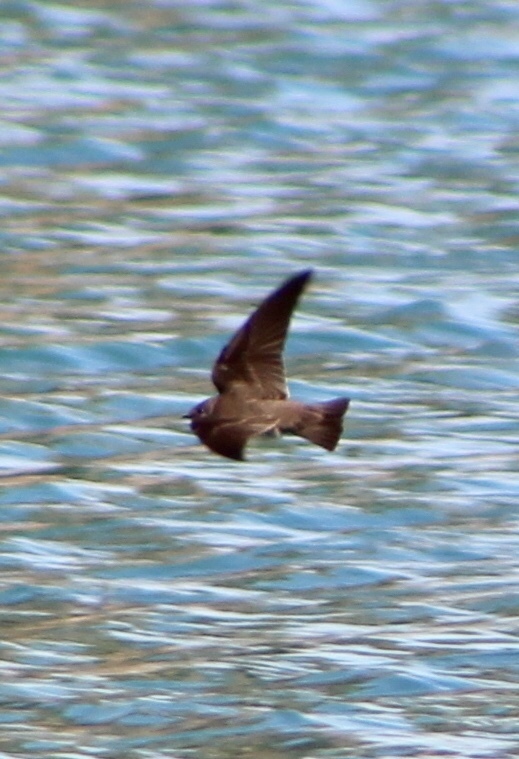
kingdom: Animalia
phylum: Chordata
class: Aves
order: Passeriformes
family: Hirundinidae
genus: Stelgidopteryx
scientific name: Stelgidopteryx serripennis
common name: Northern rough-winged swallow
